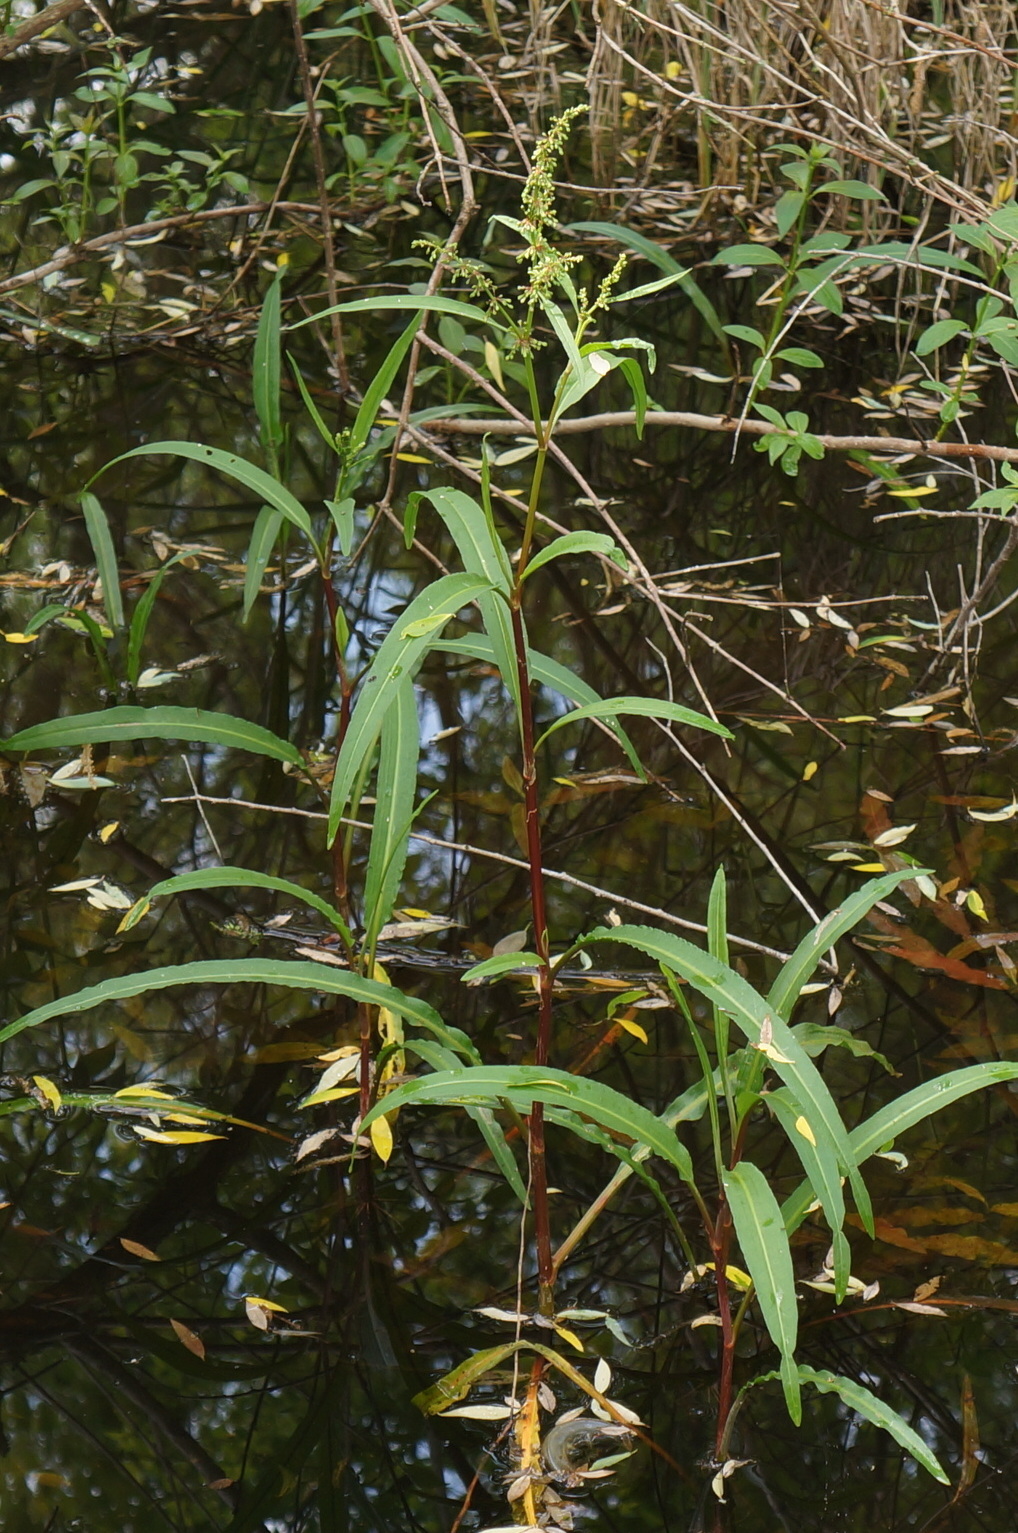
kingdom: Plantae
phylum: Tracheophyta
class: Magnoliopsida
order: Caryophyllales
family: Polygonaceae
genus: Rumex
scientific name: Rumex verticillatus
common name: Swamp dock
